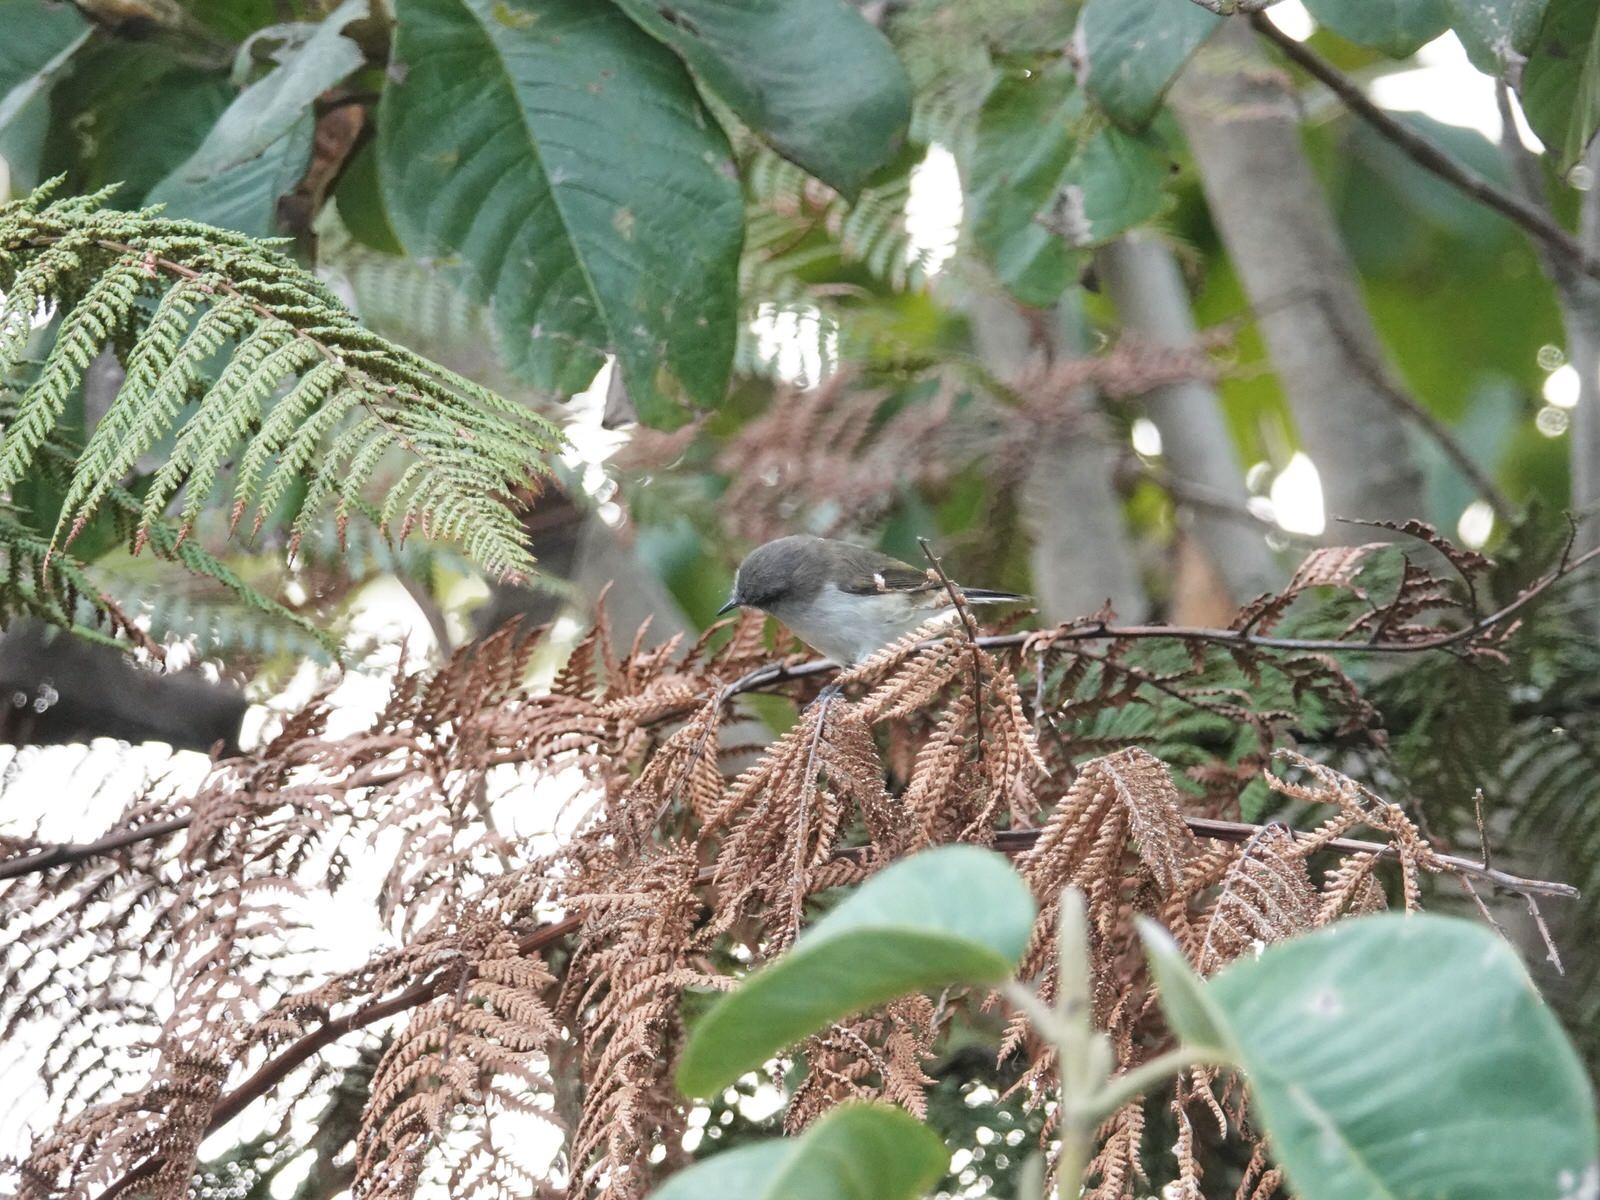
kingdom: Animalia
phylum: Chordata
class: Aves
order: Passeriformes
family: Acanthizidae
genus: Gerygone
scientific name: Gerygone igata
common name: Grey gerygone
